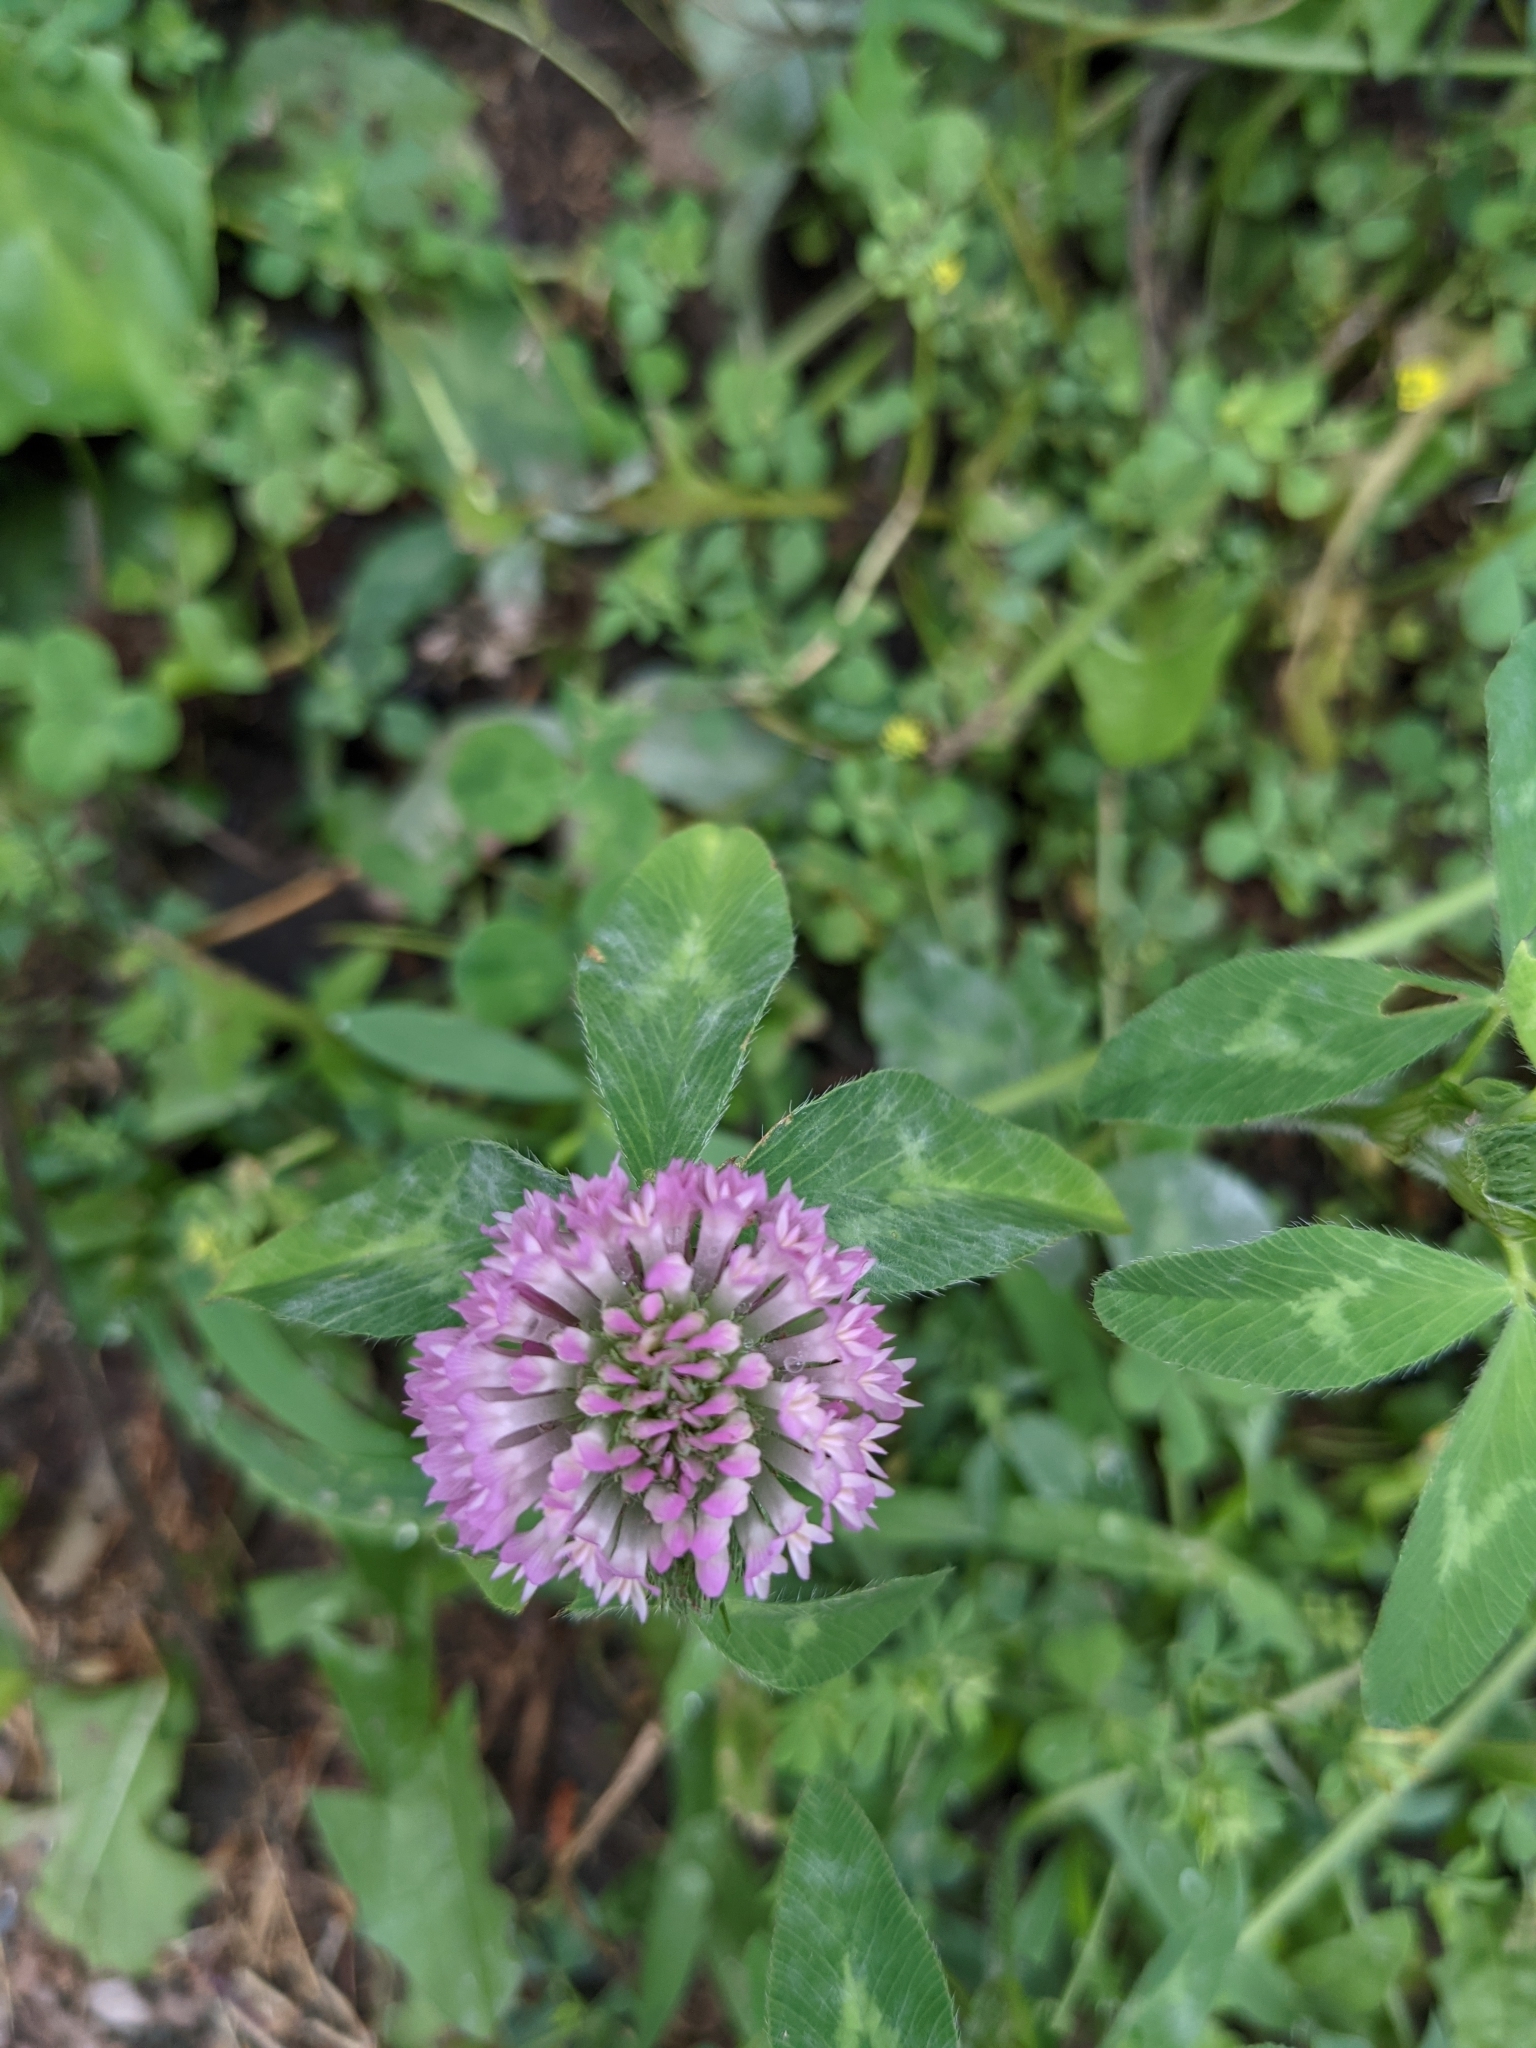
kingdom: Plantae
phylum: Tracheophyta
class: Magnoliopsida
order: Fabales
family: Fabaceae
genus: Trifolium
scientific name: Trifolium pratense
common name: Red clover
